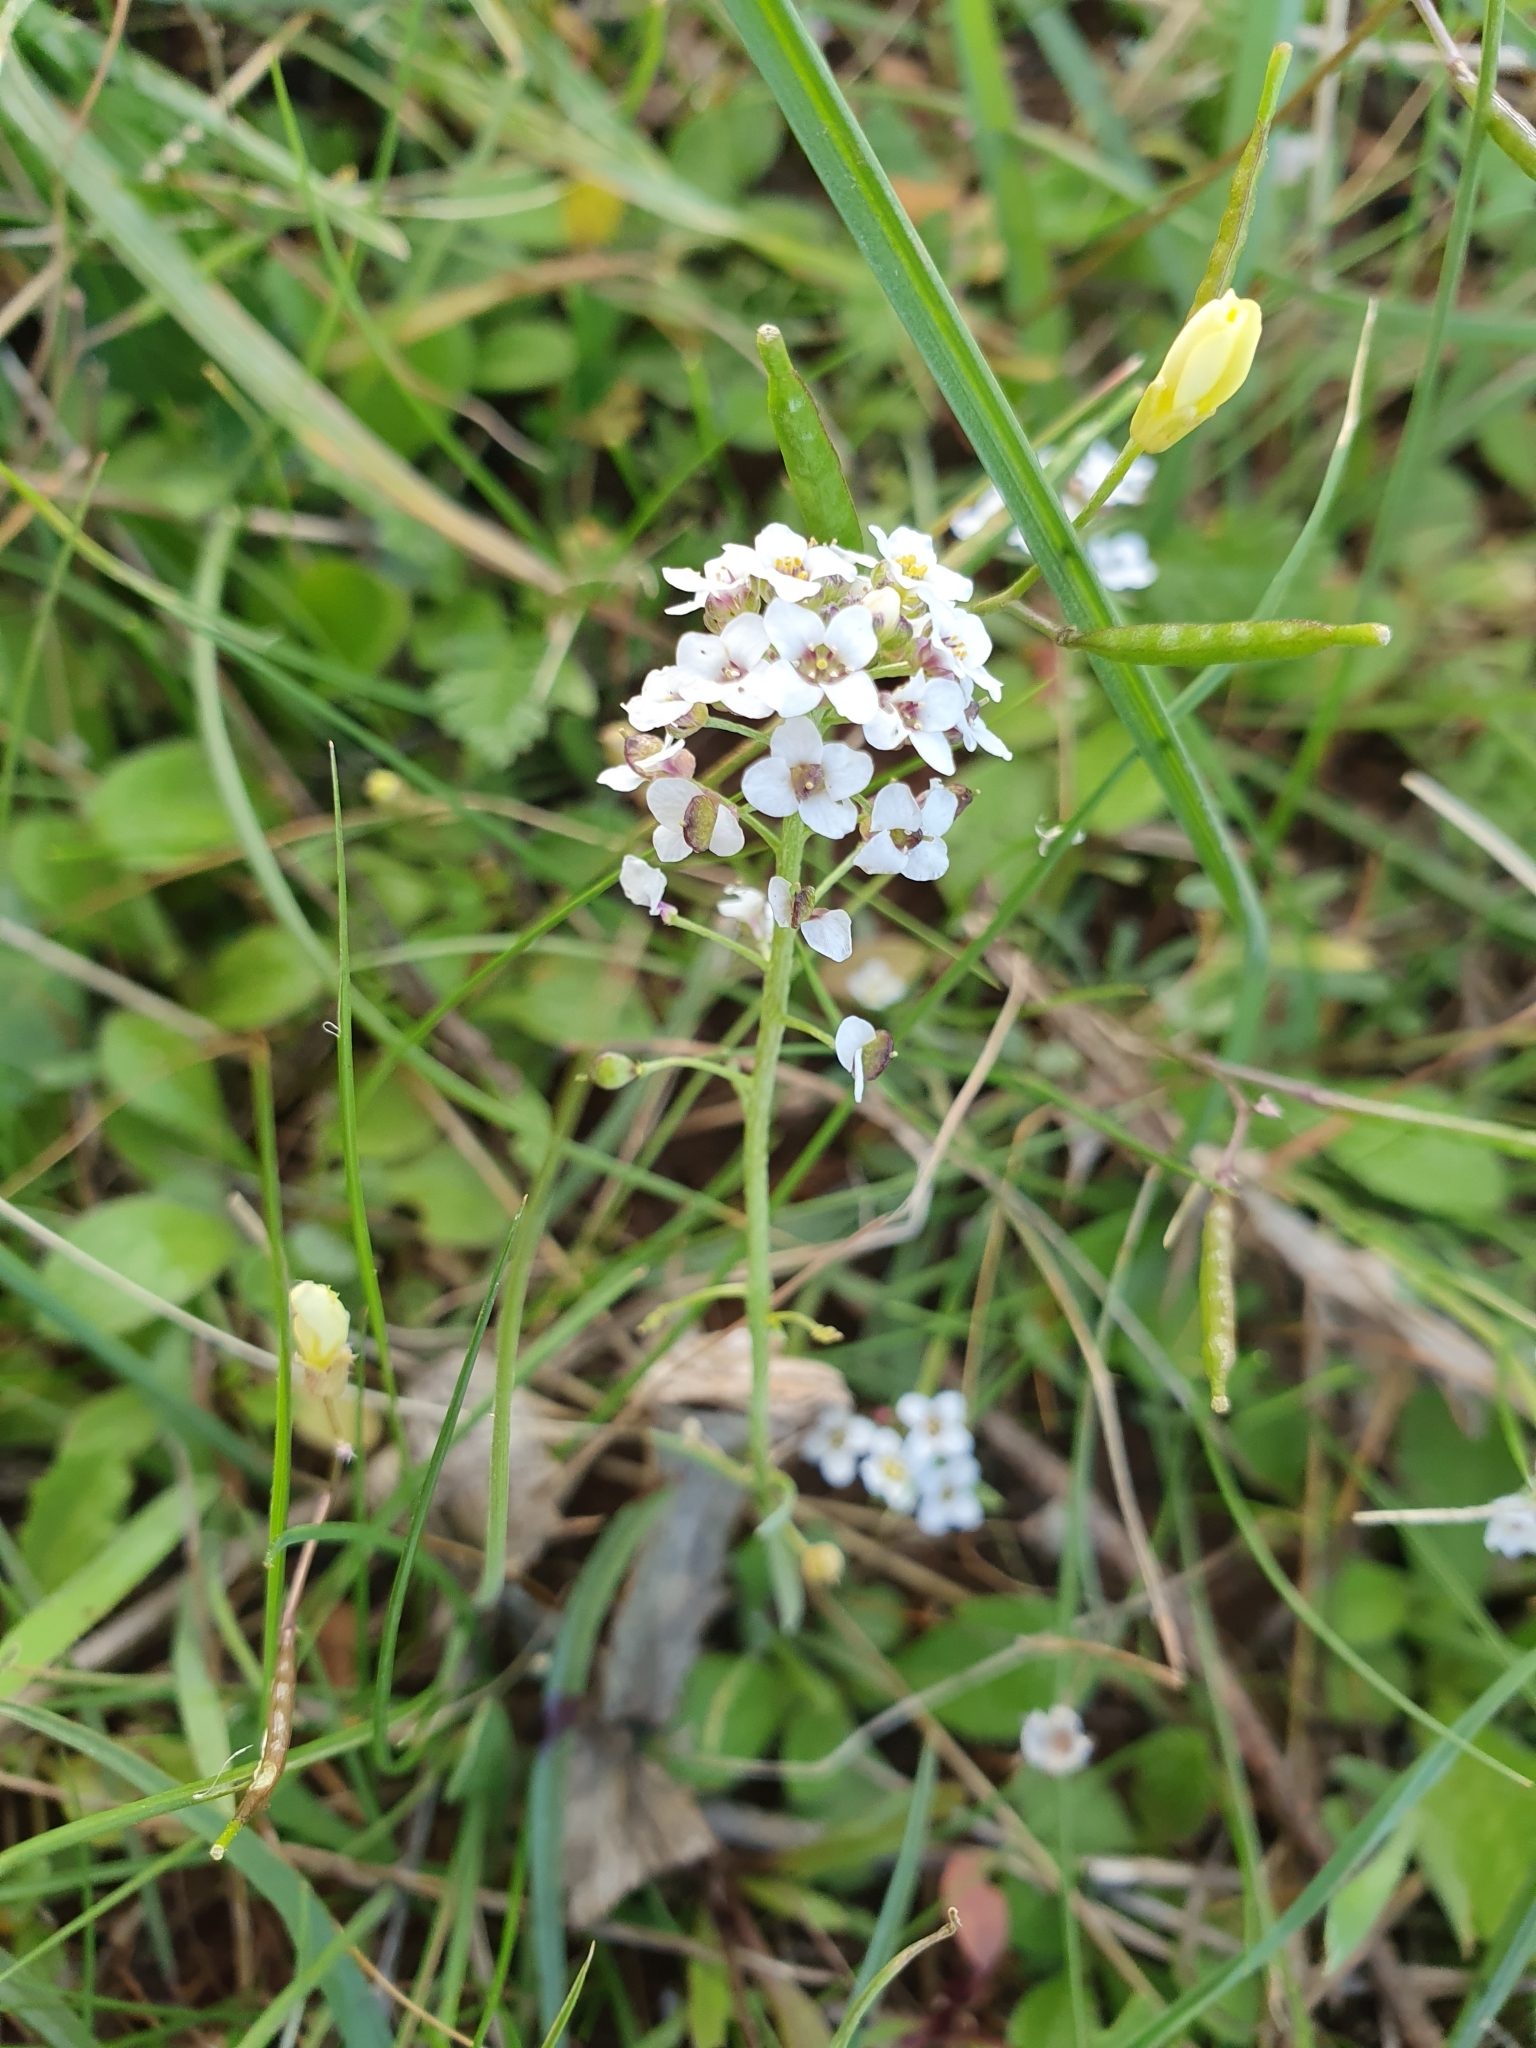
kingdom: Plantae
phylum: Tracheophyta
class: Magnoliopsida
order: Brassicales
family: Brassicaceae
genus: Lobularia
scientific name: Lobularia maritima
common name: Sweet alison
